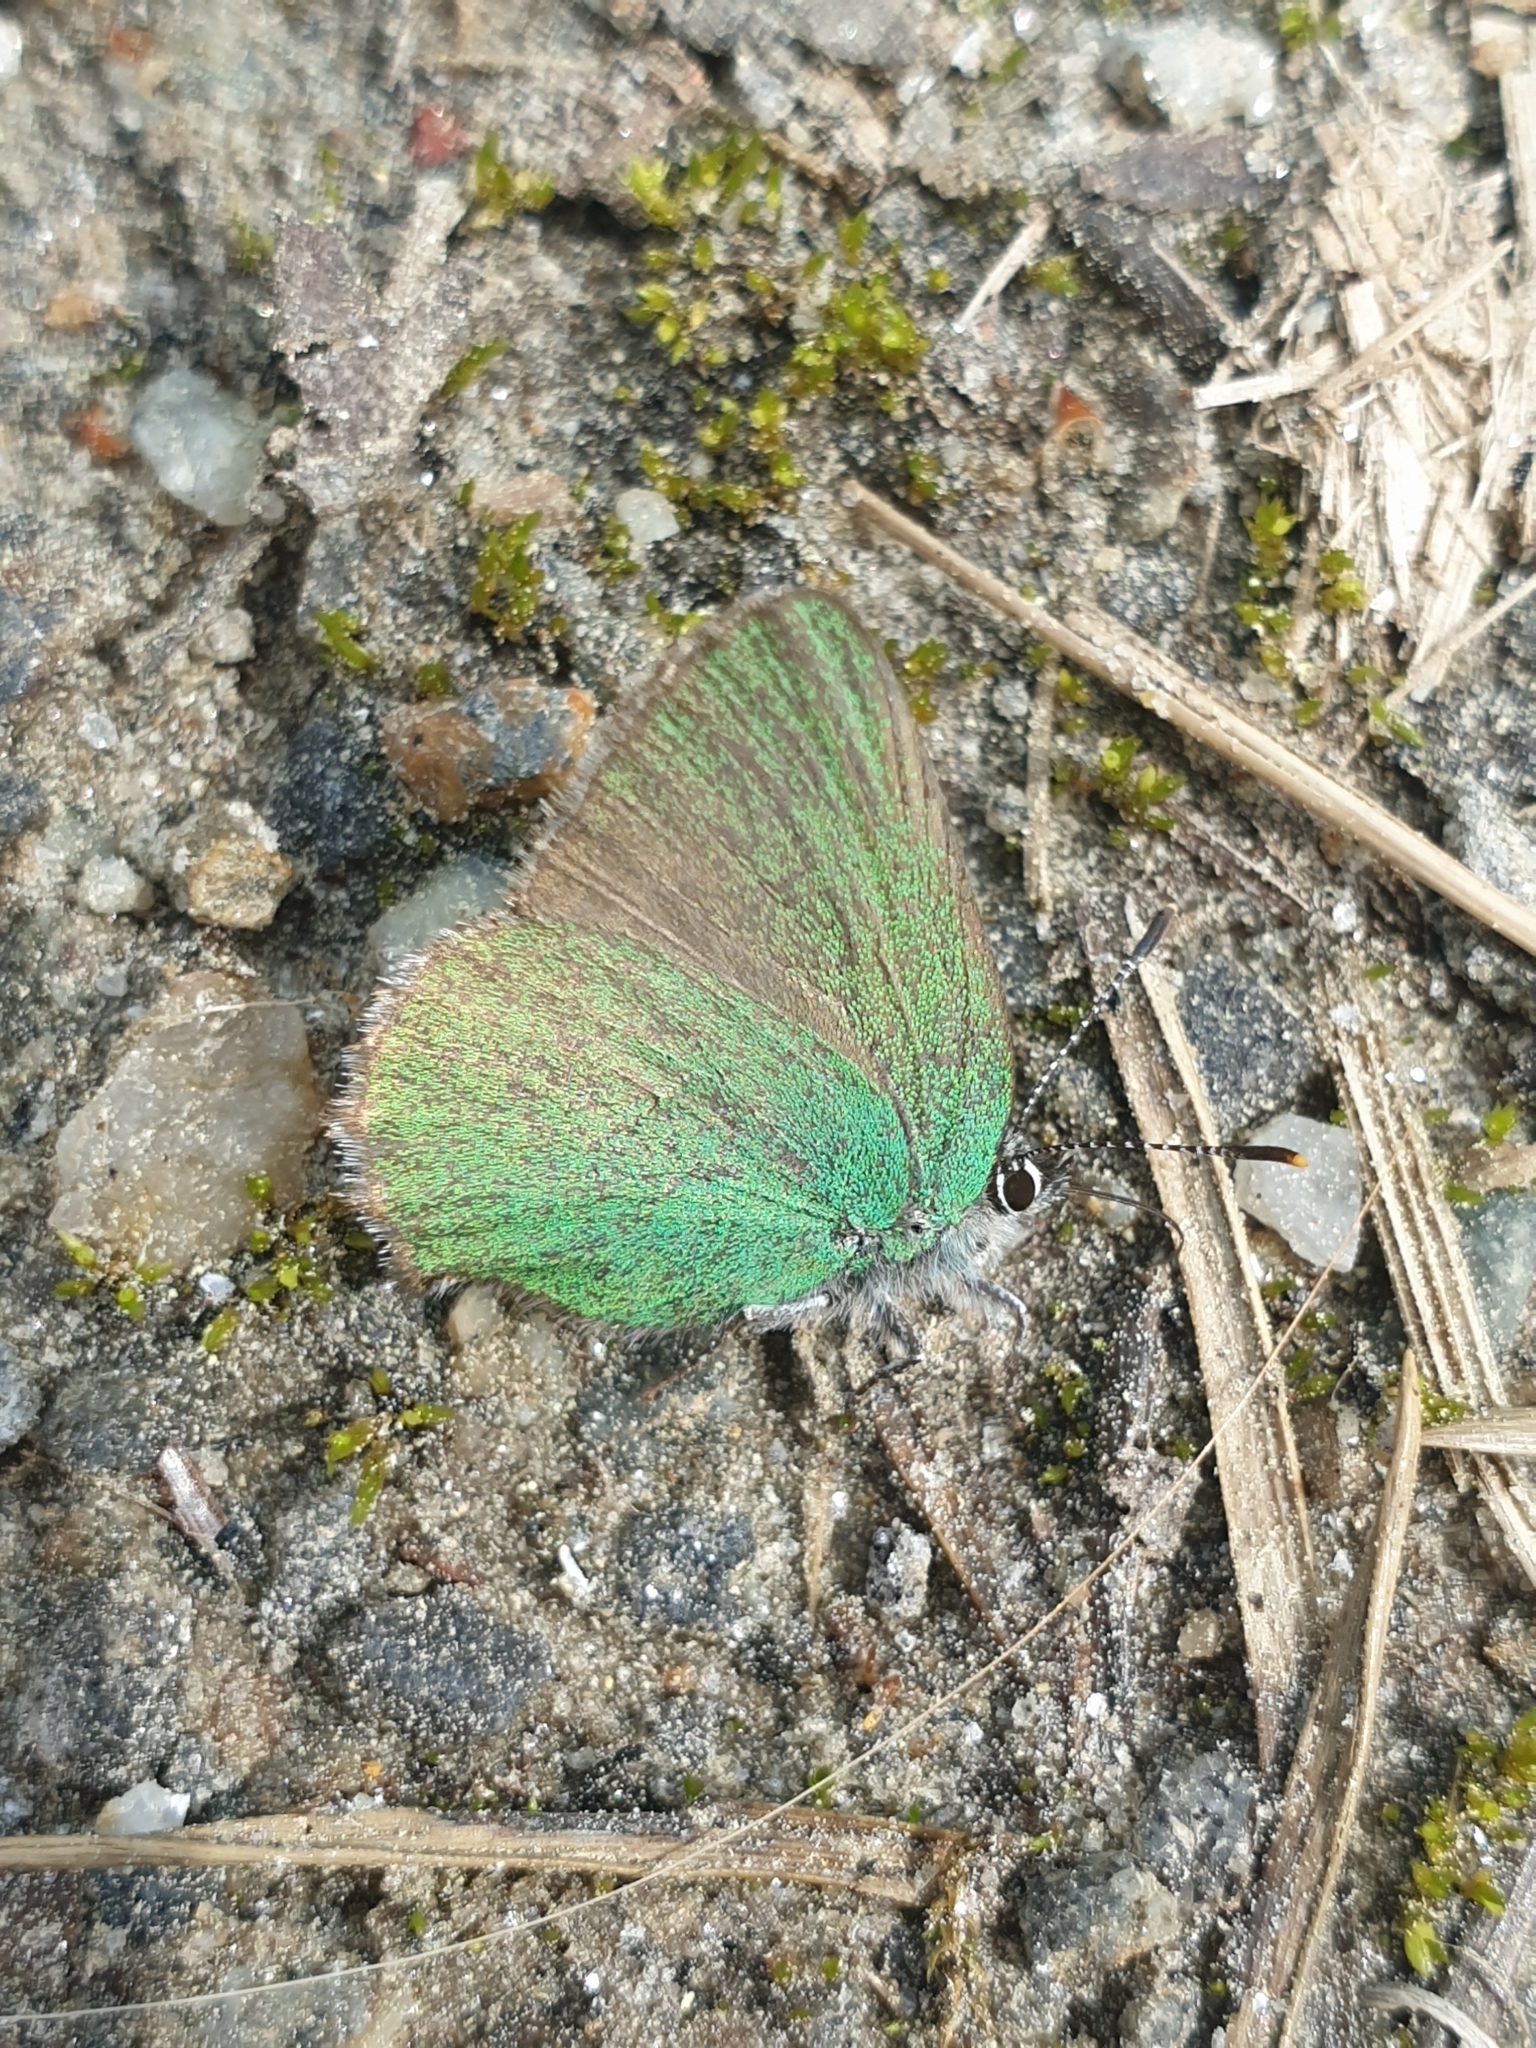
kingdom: Animalia
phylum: Arthropoda
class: Insecta
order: Lepidoptera
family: Lycaenidae
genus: Callophrys
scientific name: Callophrys rubi
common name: Green hairstreak
